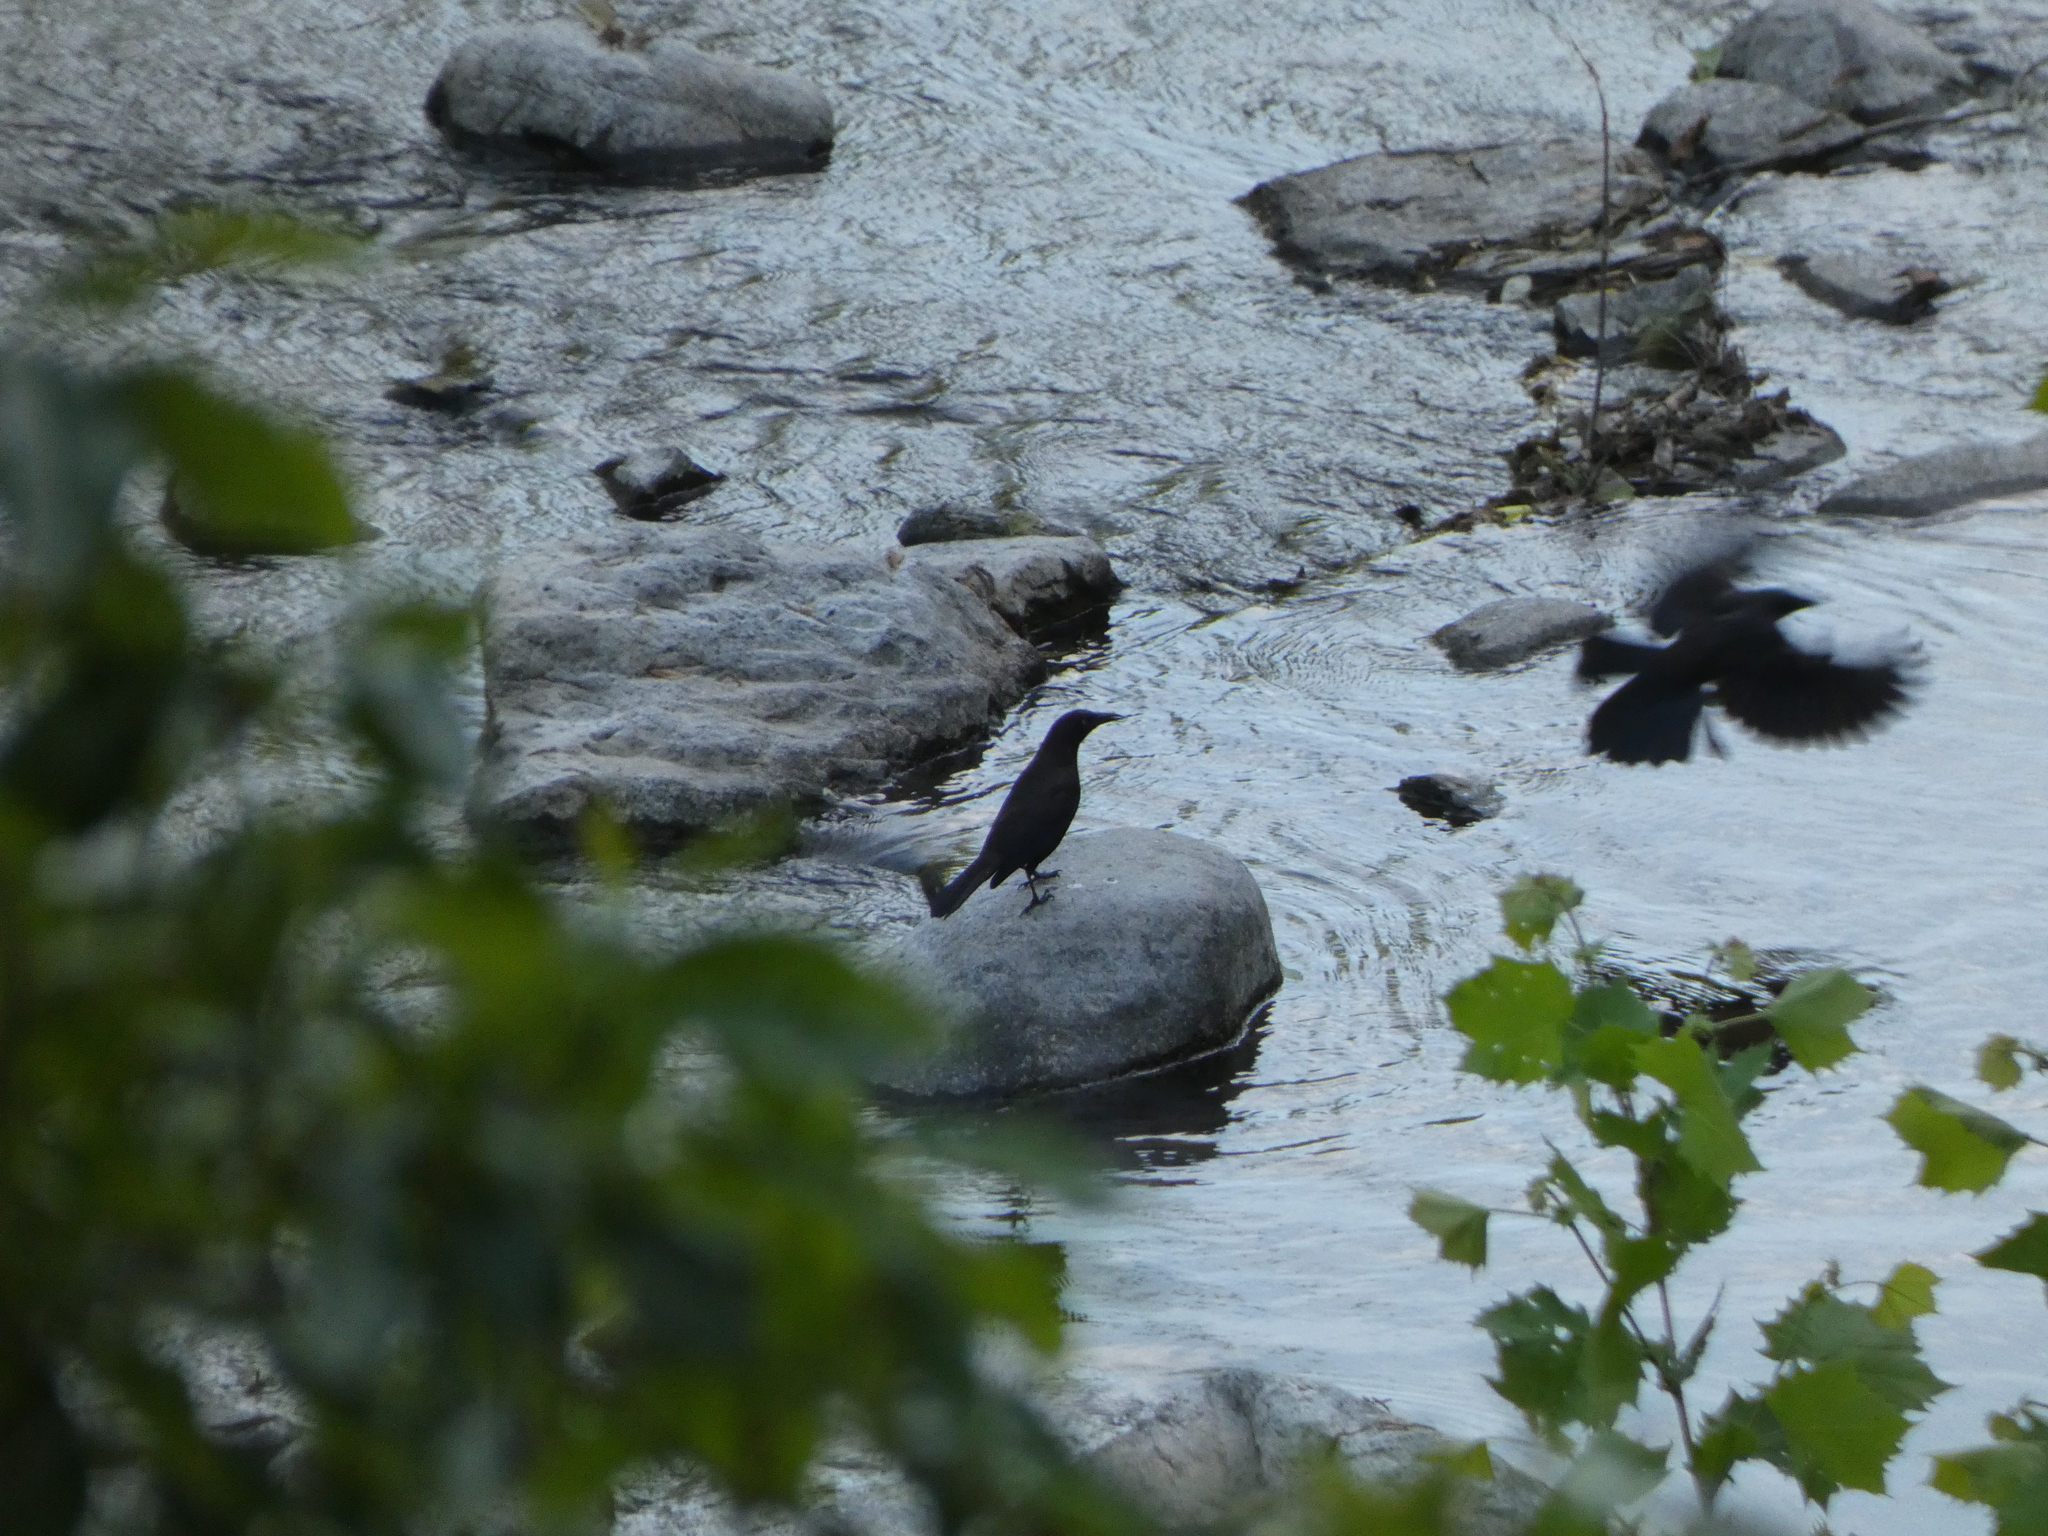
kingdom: Animalia
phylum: Chordata
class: Aves
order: Passeriformes
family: Icteridae
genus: Quiscalus
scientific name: Quiscalus quiscula
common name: Common grackle
